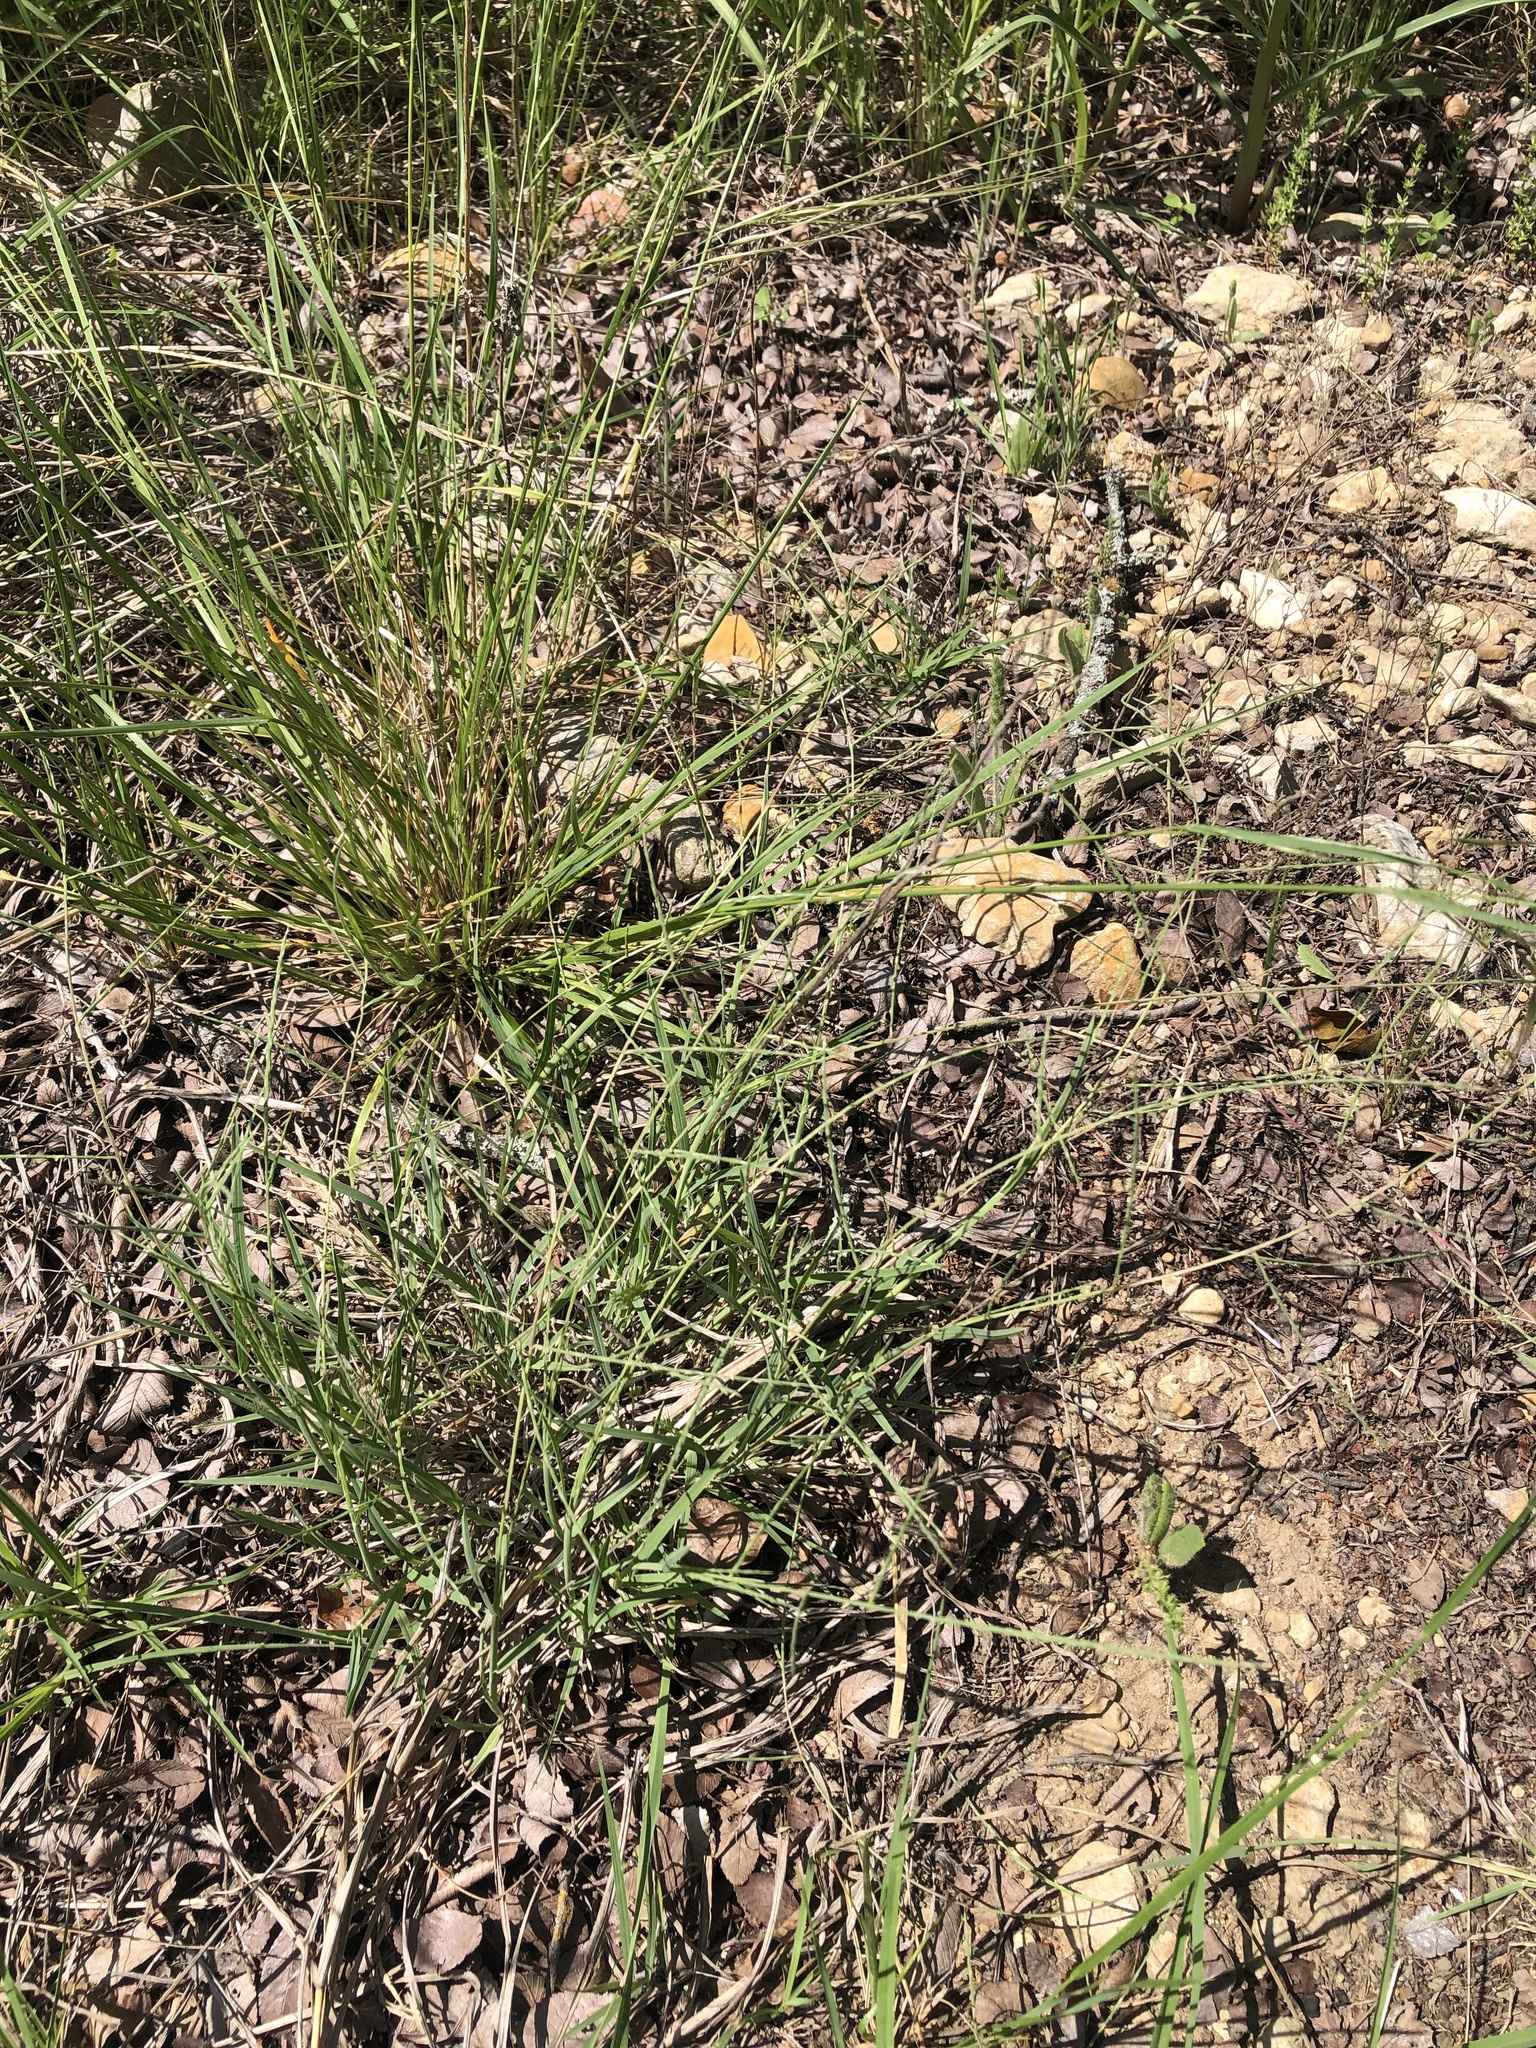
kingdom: Plantae
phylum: Tracheophyta
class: Liliopsida
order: Poales
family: Poaceae
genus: Muhlenbergia
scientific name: Muhlenbergia paniculata
